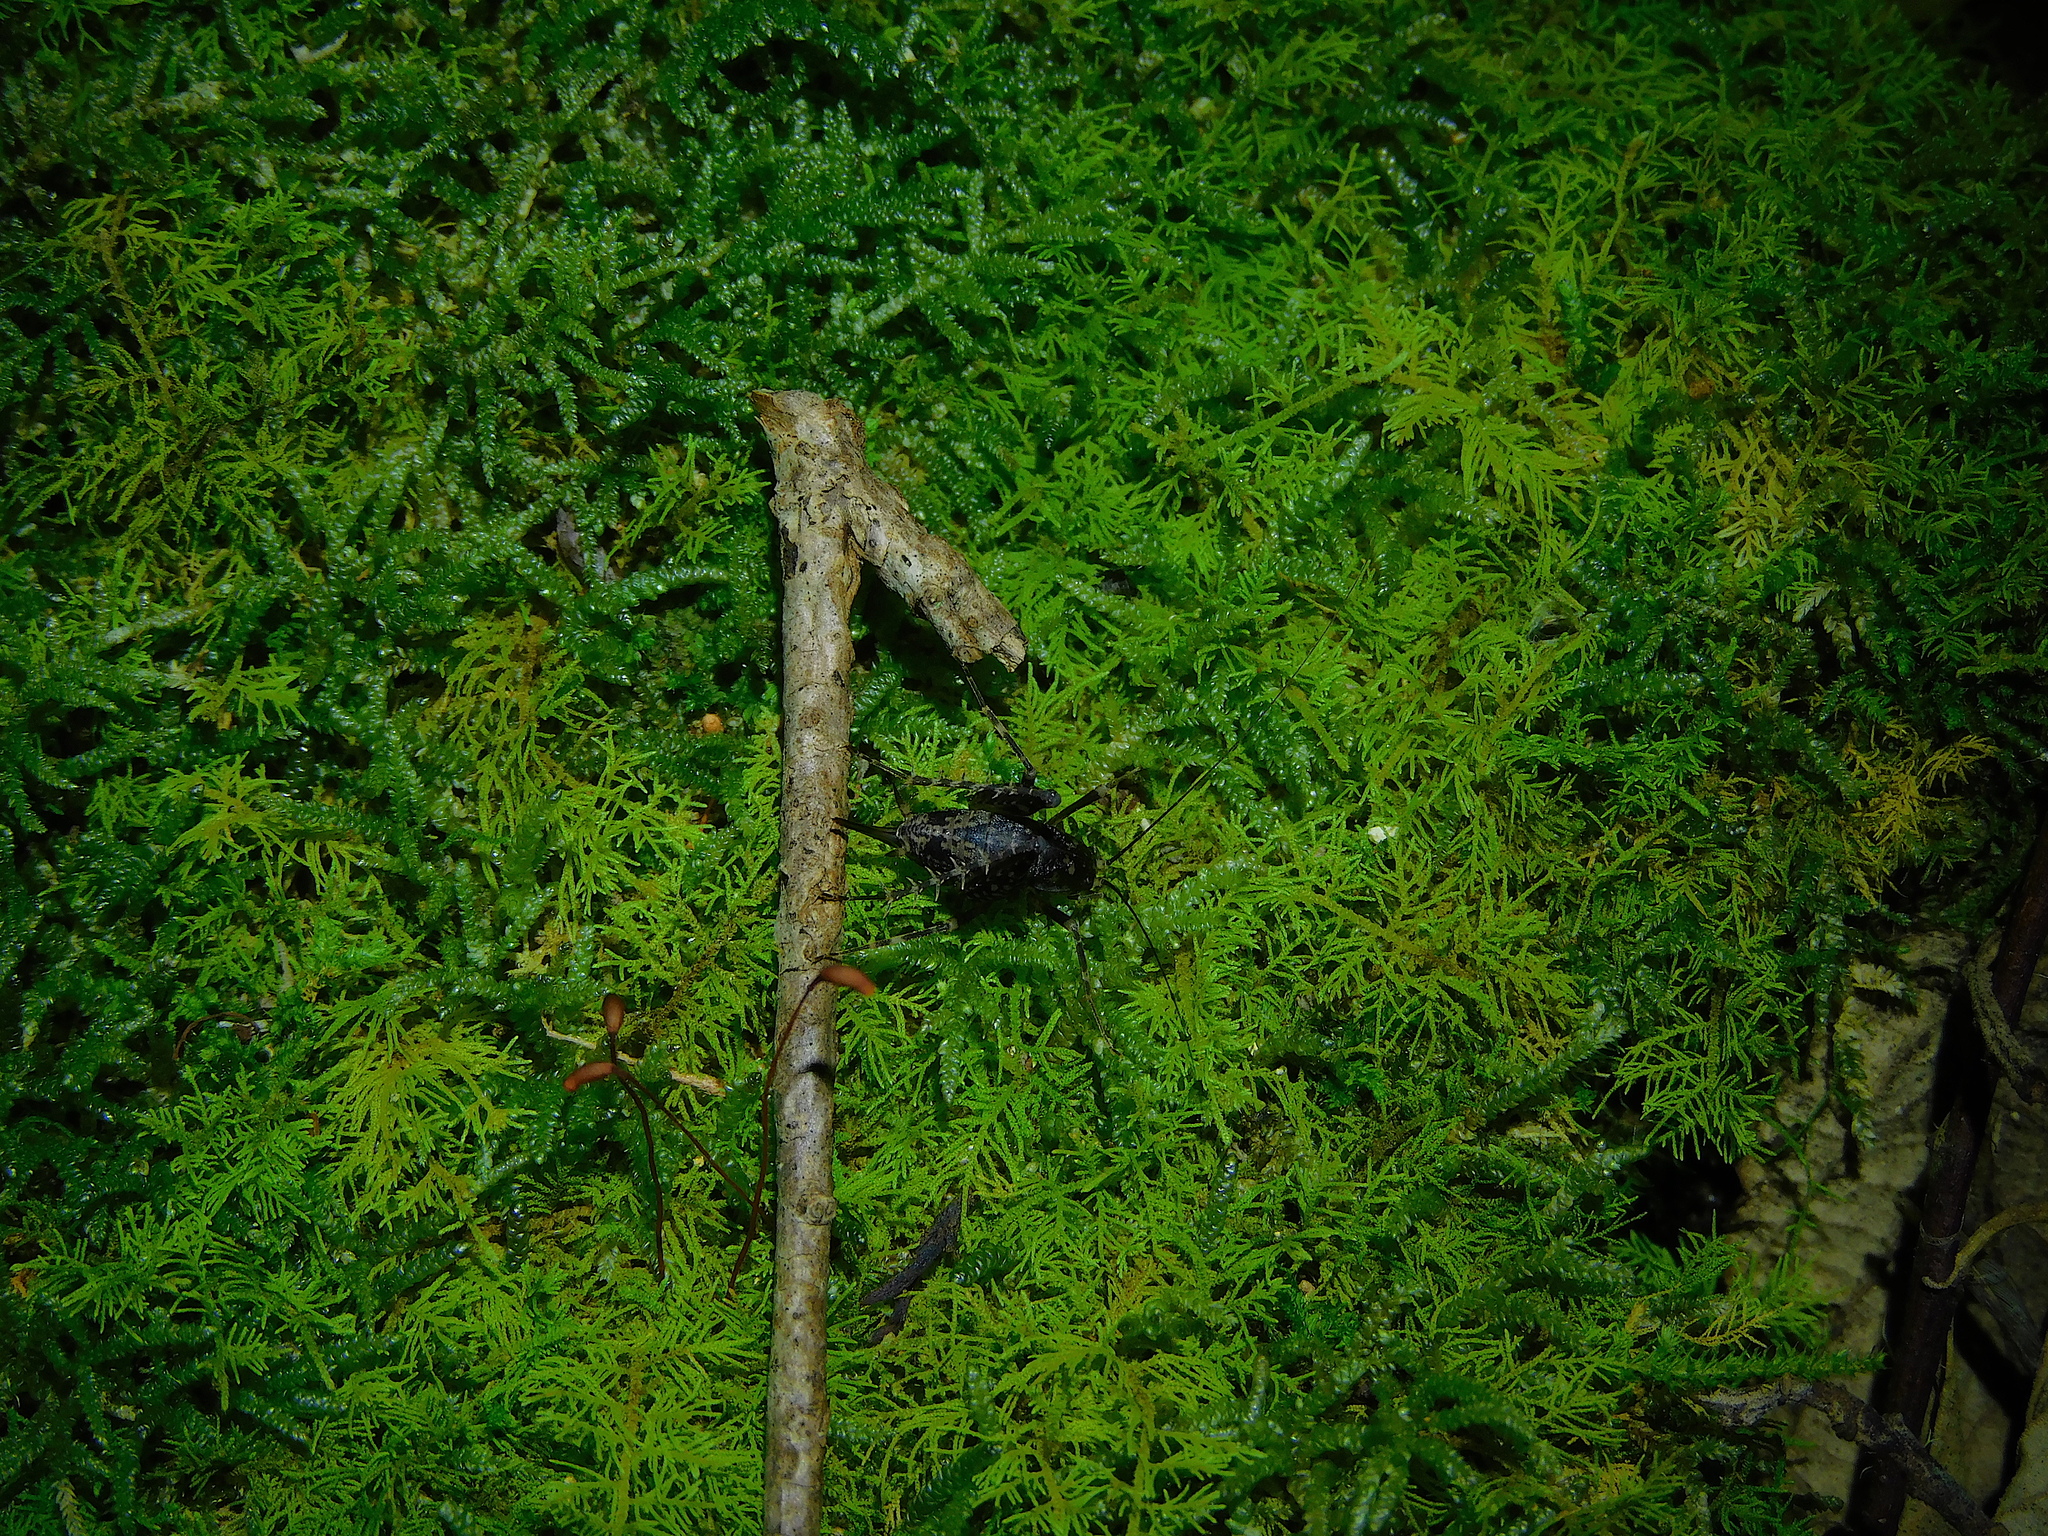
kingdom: Animalia
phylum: Arthropoda
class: Insecta
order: Orthoptera
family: Rhaphidophoridae
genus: Parvotettix
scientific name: Parvotettix domesticus
